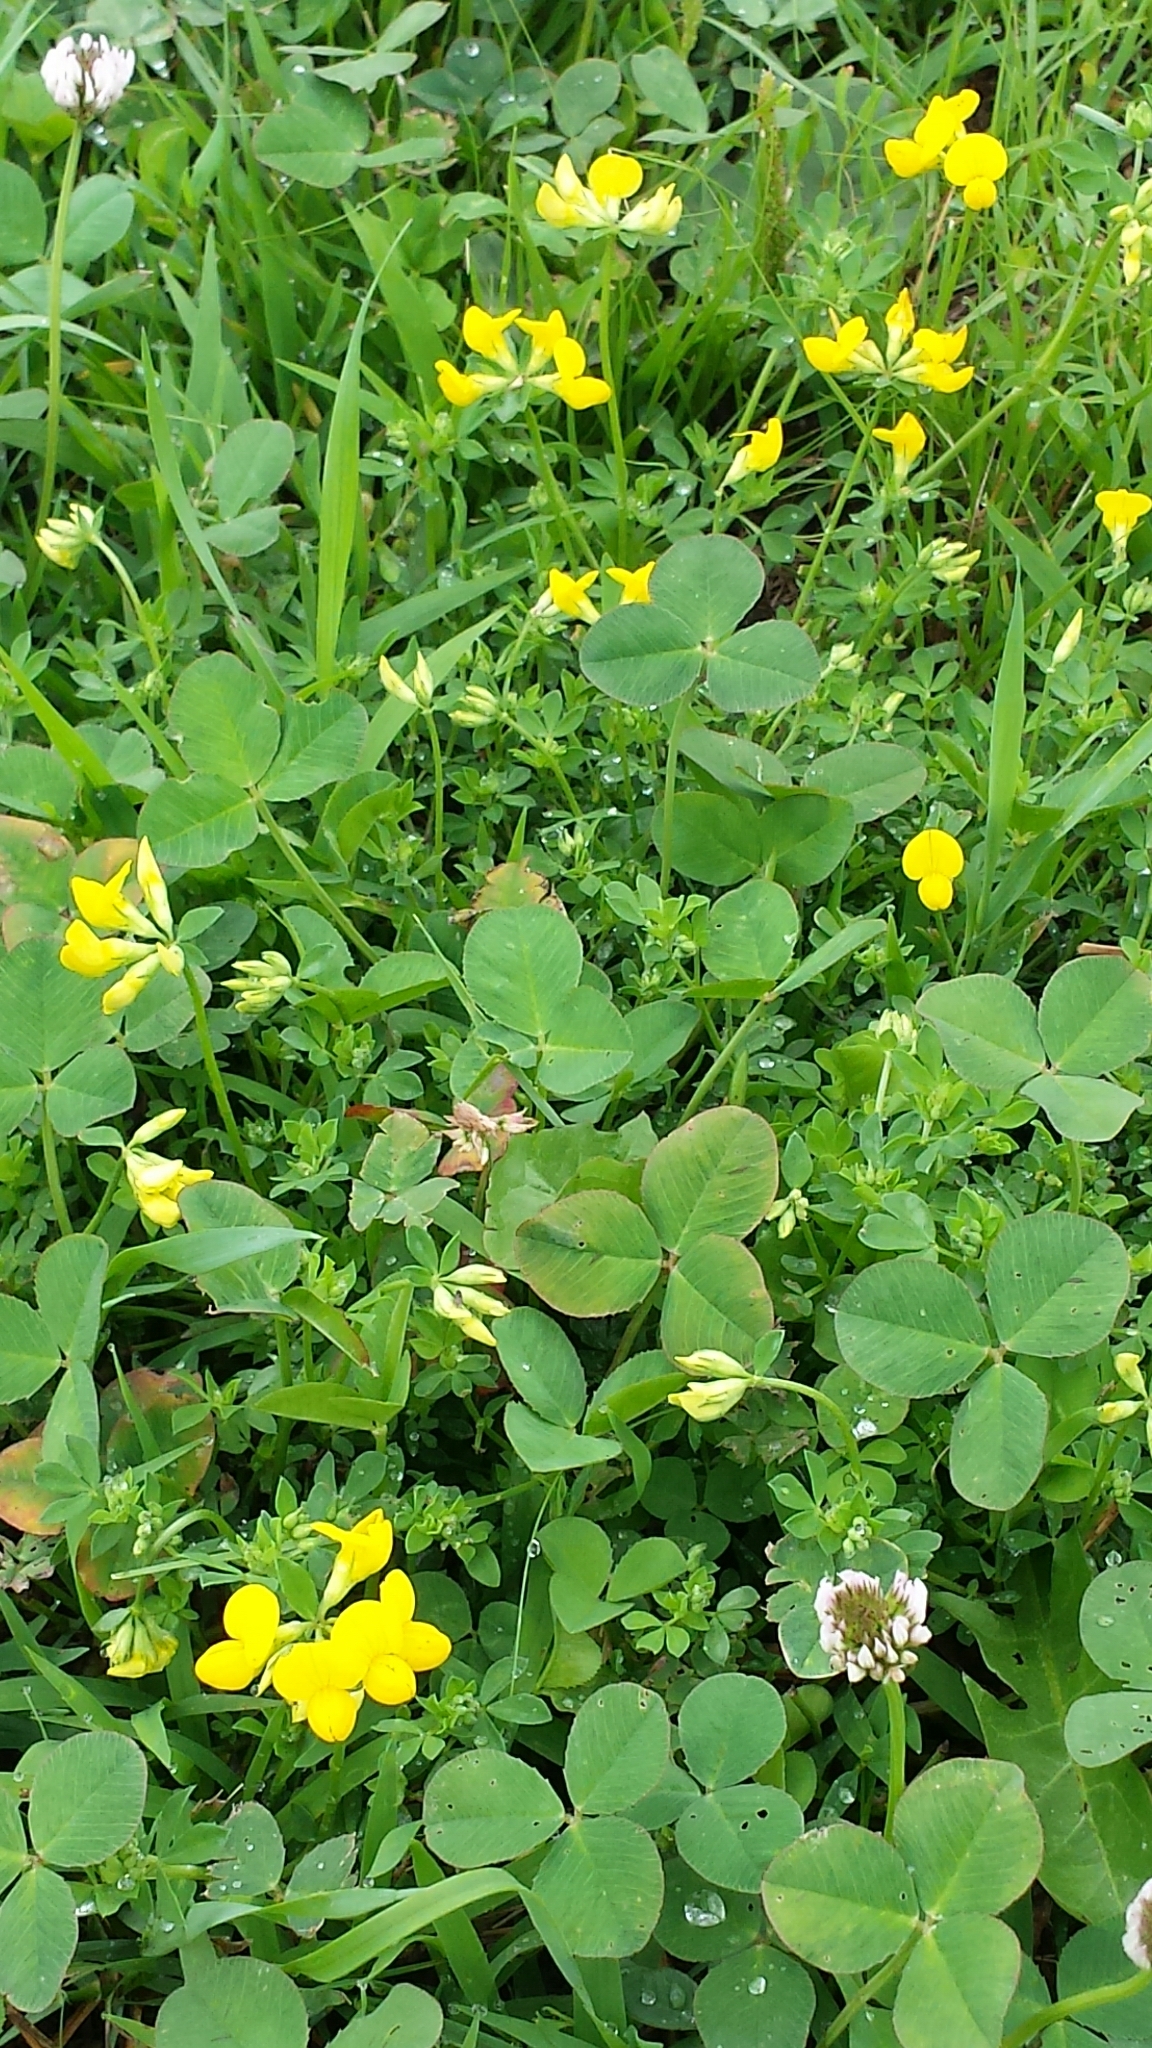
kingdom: Plantae
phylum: Tracheophyta
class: Magnoliopsida
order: Fabales
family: Fabaceae
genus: Lotus
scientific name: Lotus corniculatus
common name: Common bird's-foot-trefoil
